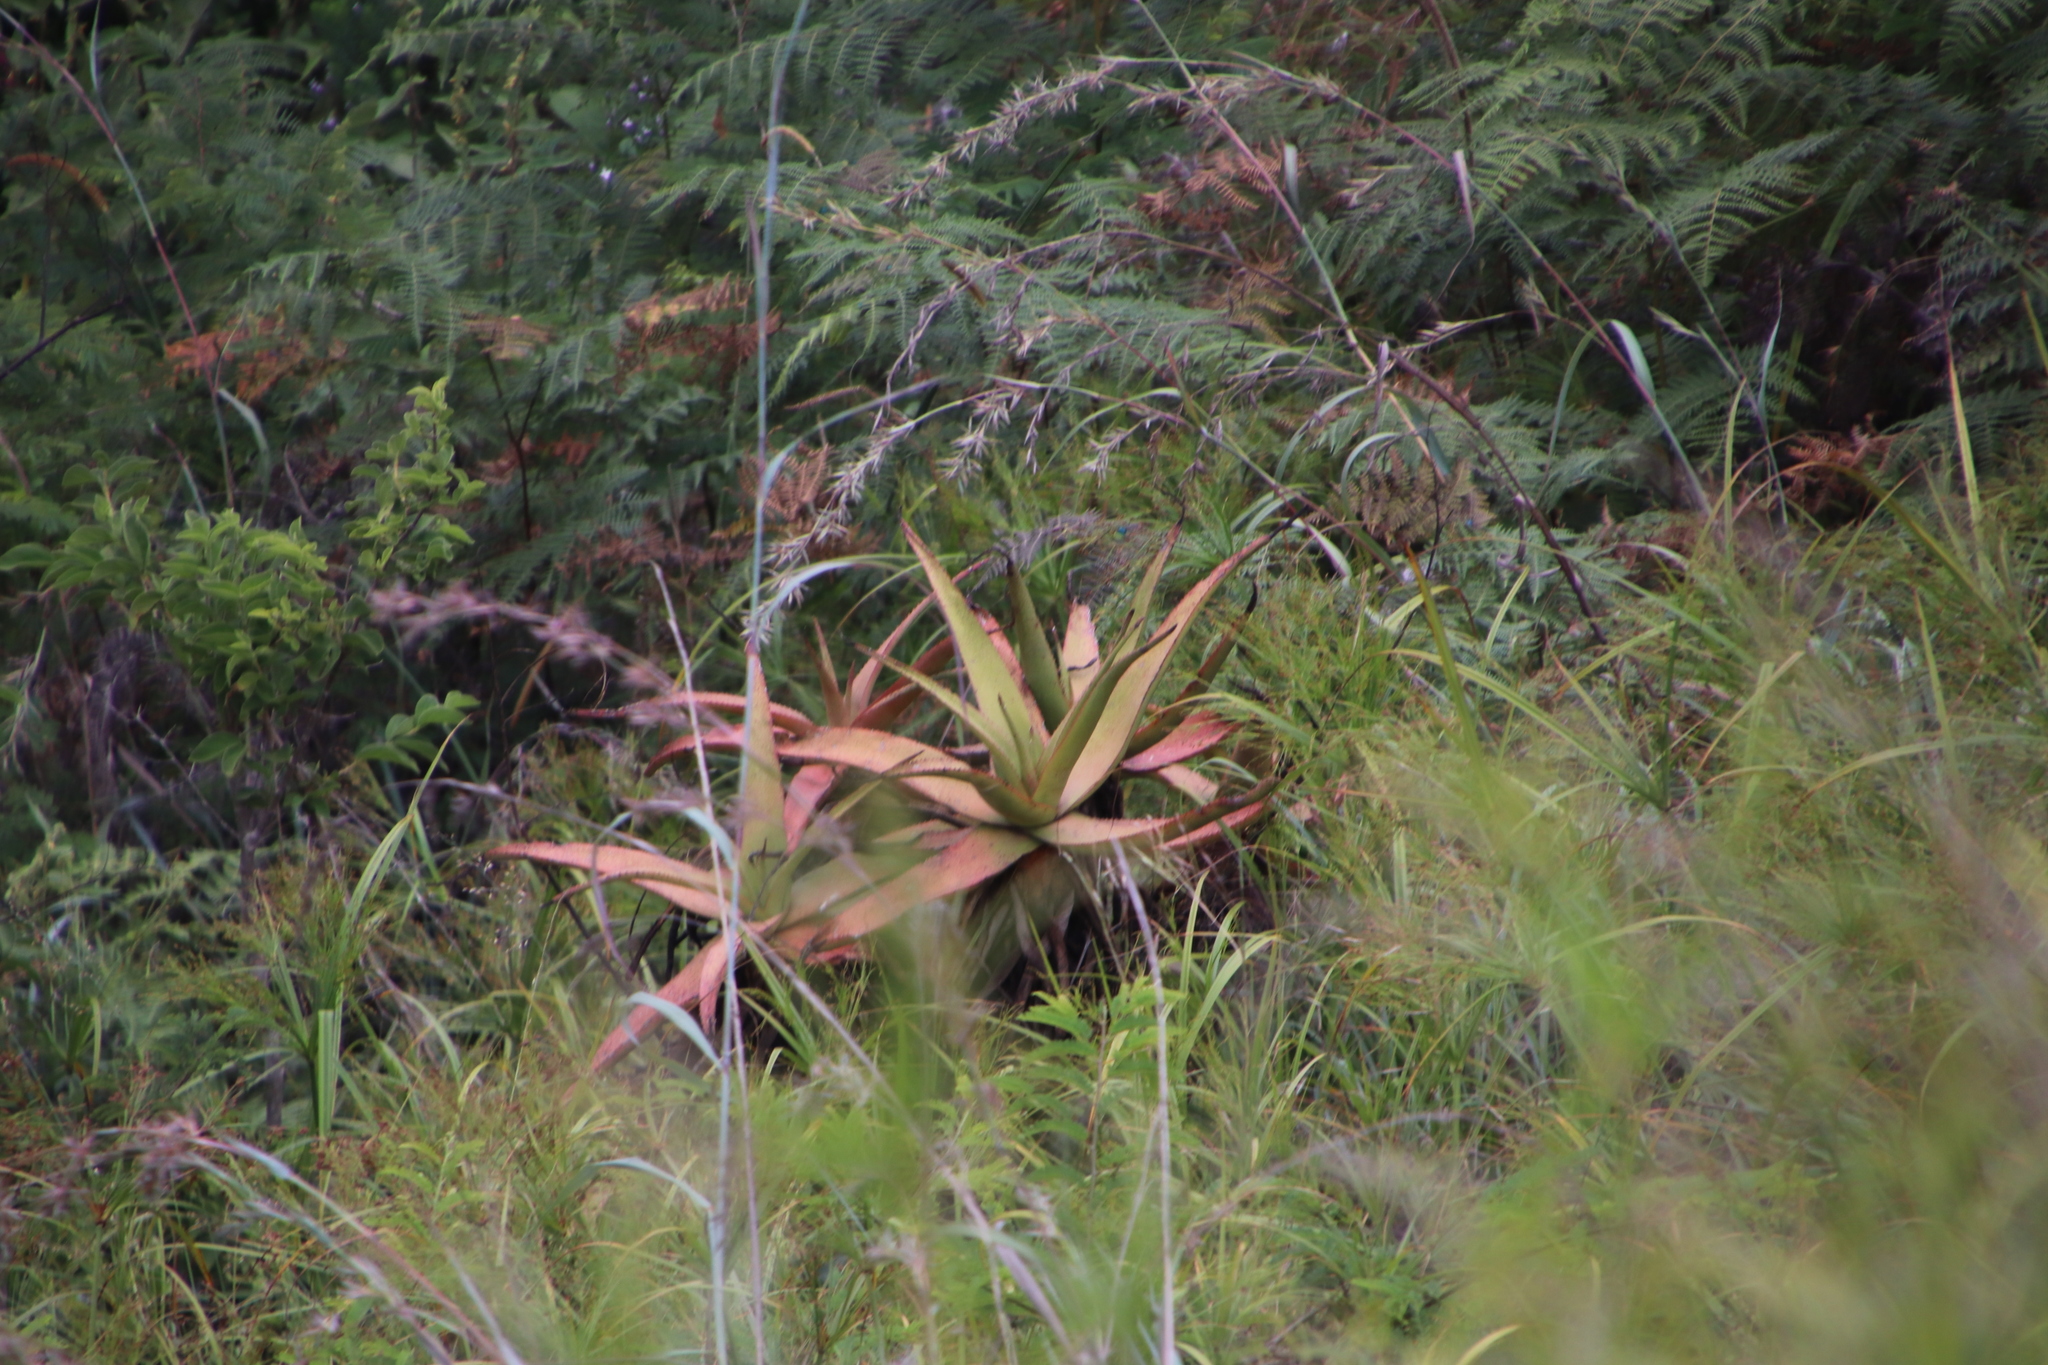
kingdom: Plantae
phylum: Tracheophyta
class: Liliopsida
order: Asparagales
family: Asphodelaceae
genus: Aloe
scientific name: Aloe spicata
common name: Gazaland aloe
